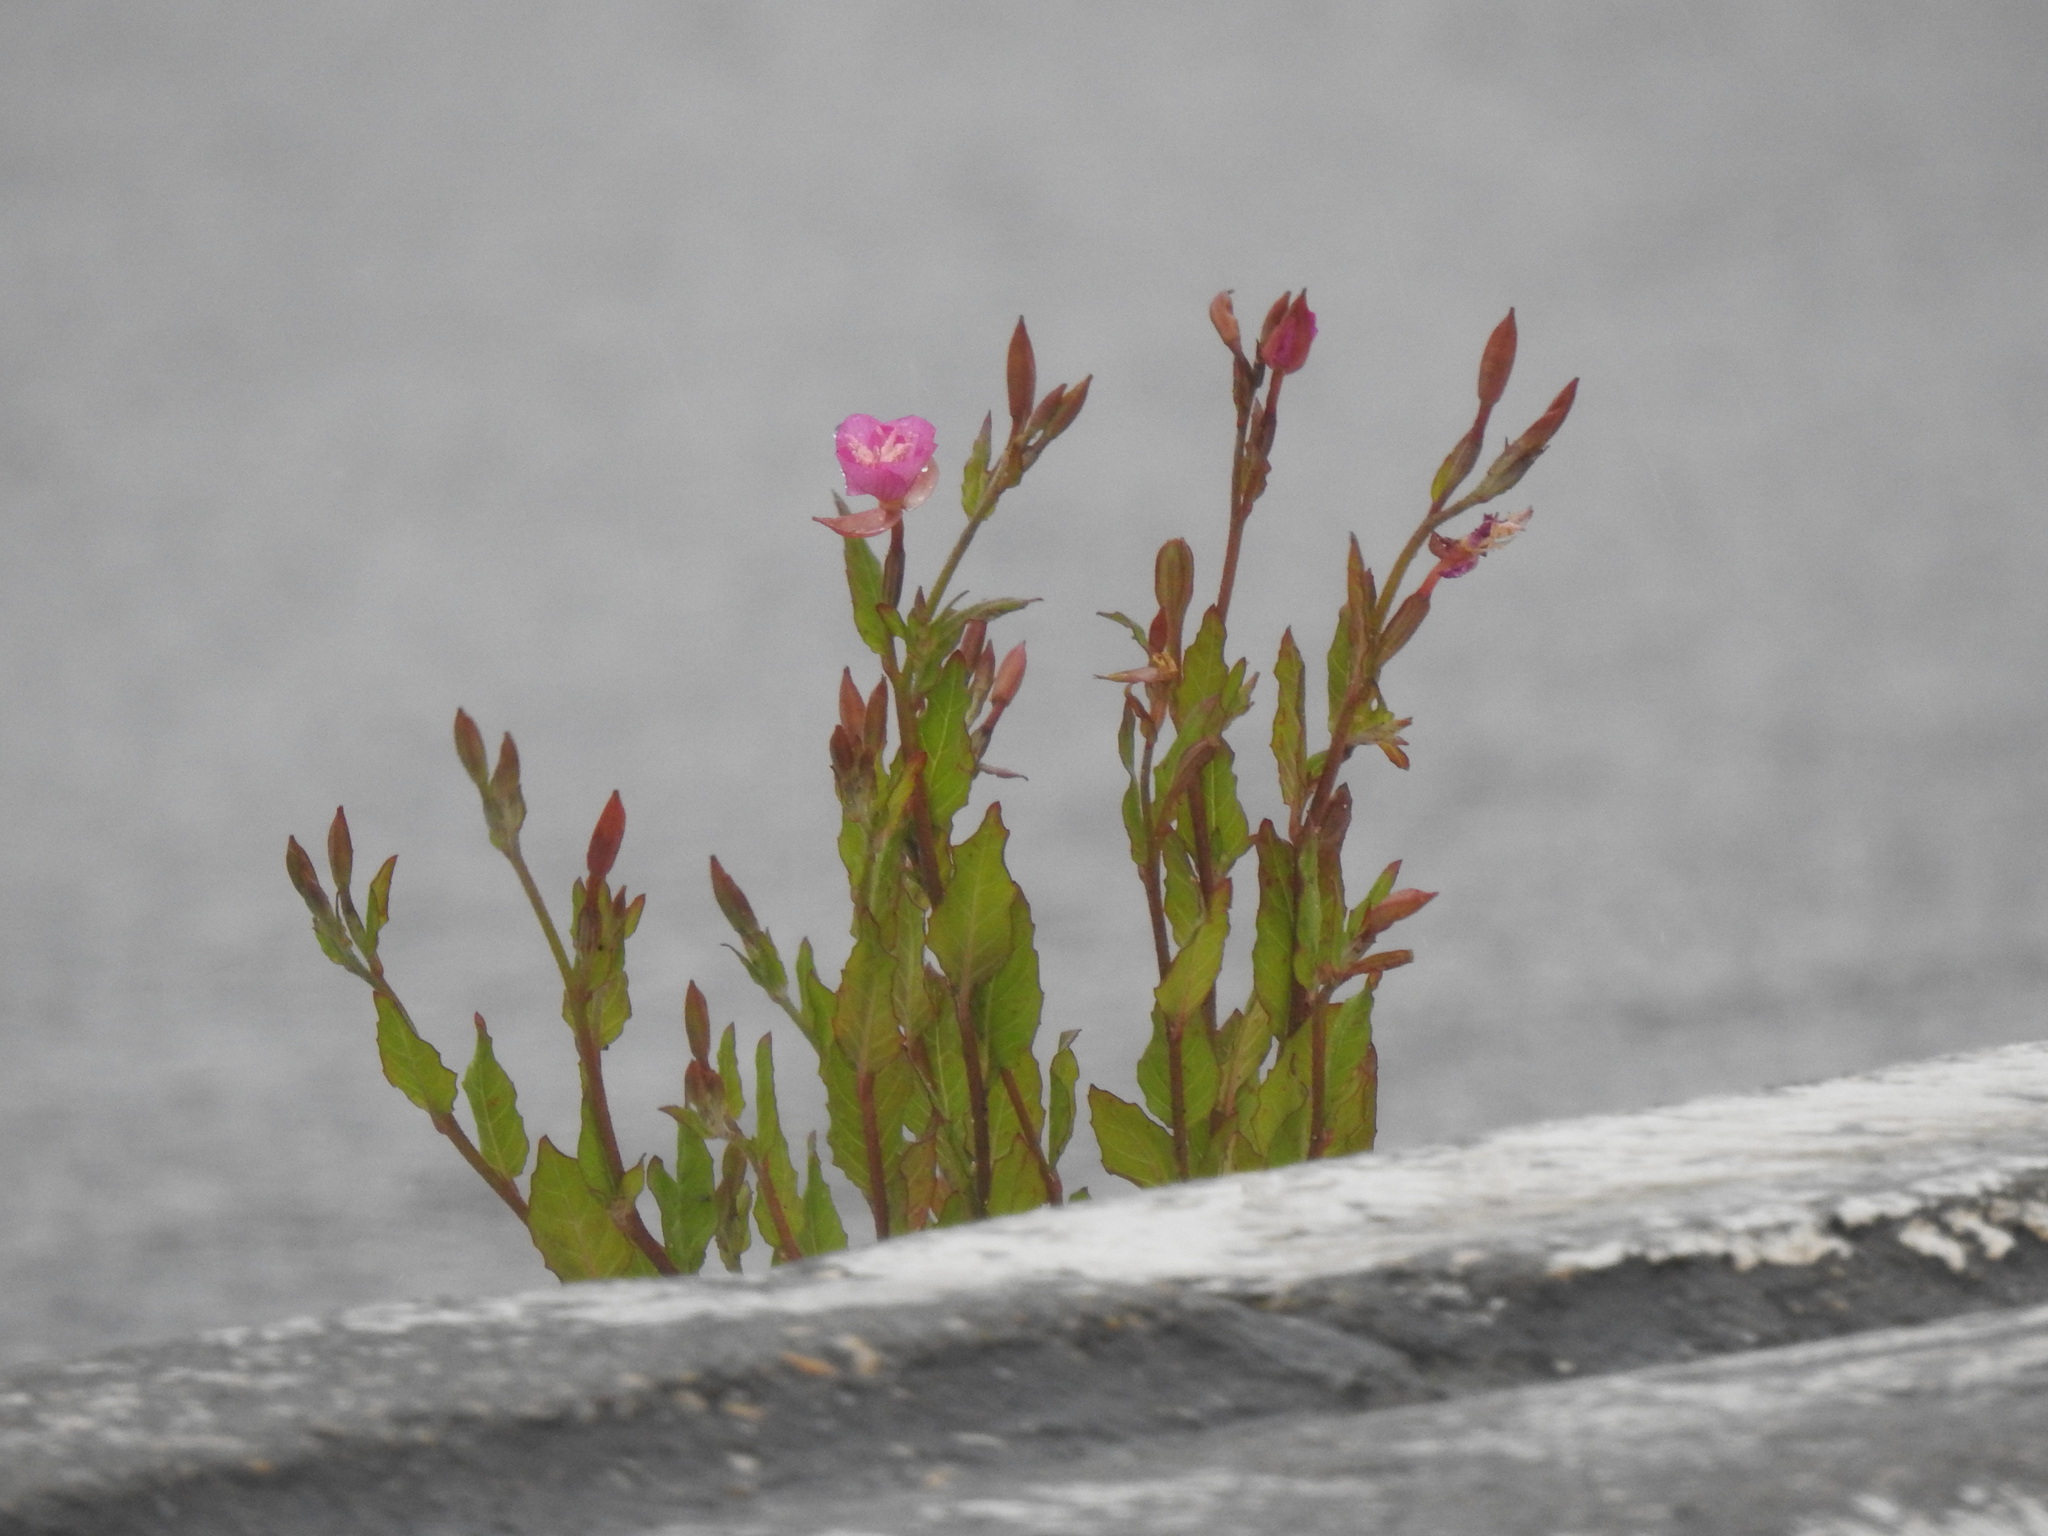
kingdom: Plantae
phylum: Tracheophyta
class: Magnoliopsida
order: Myrtales
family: Onagraceae
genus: Oenothera
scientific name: Oenothera rosea
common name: Rosy evening-primrose
